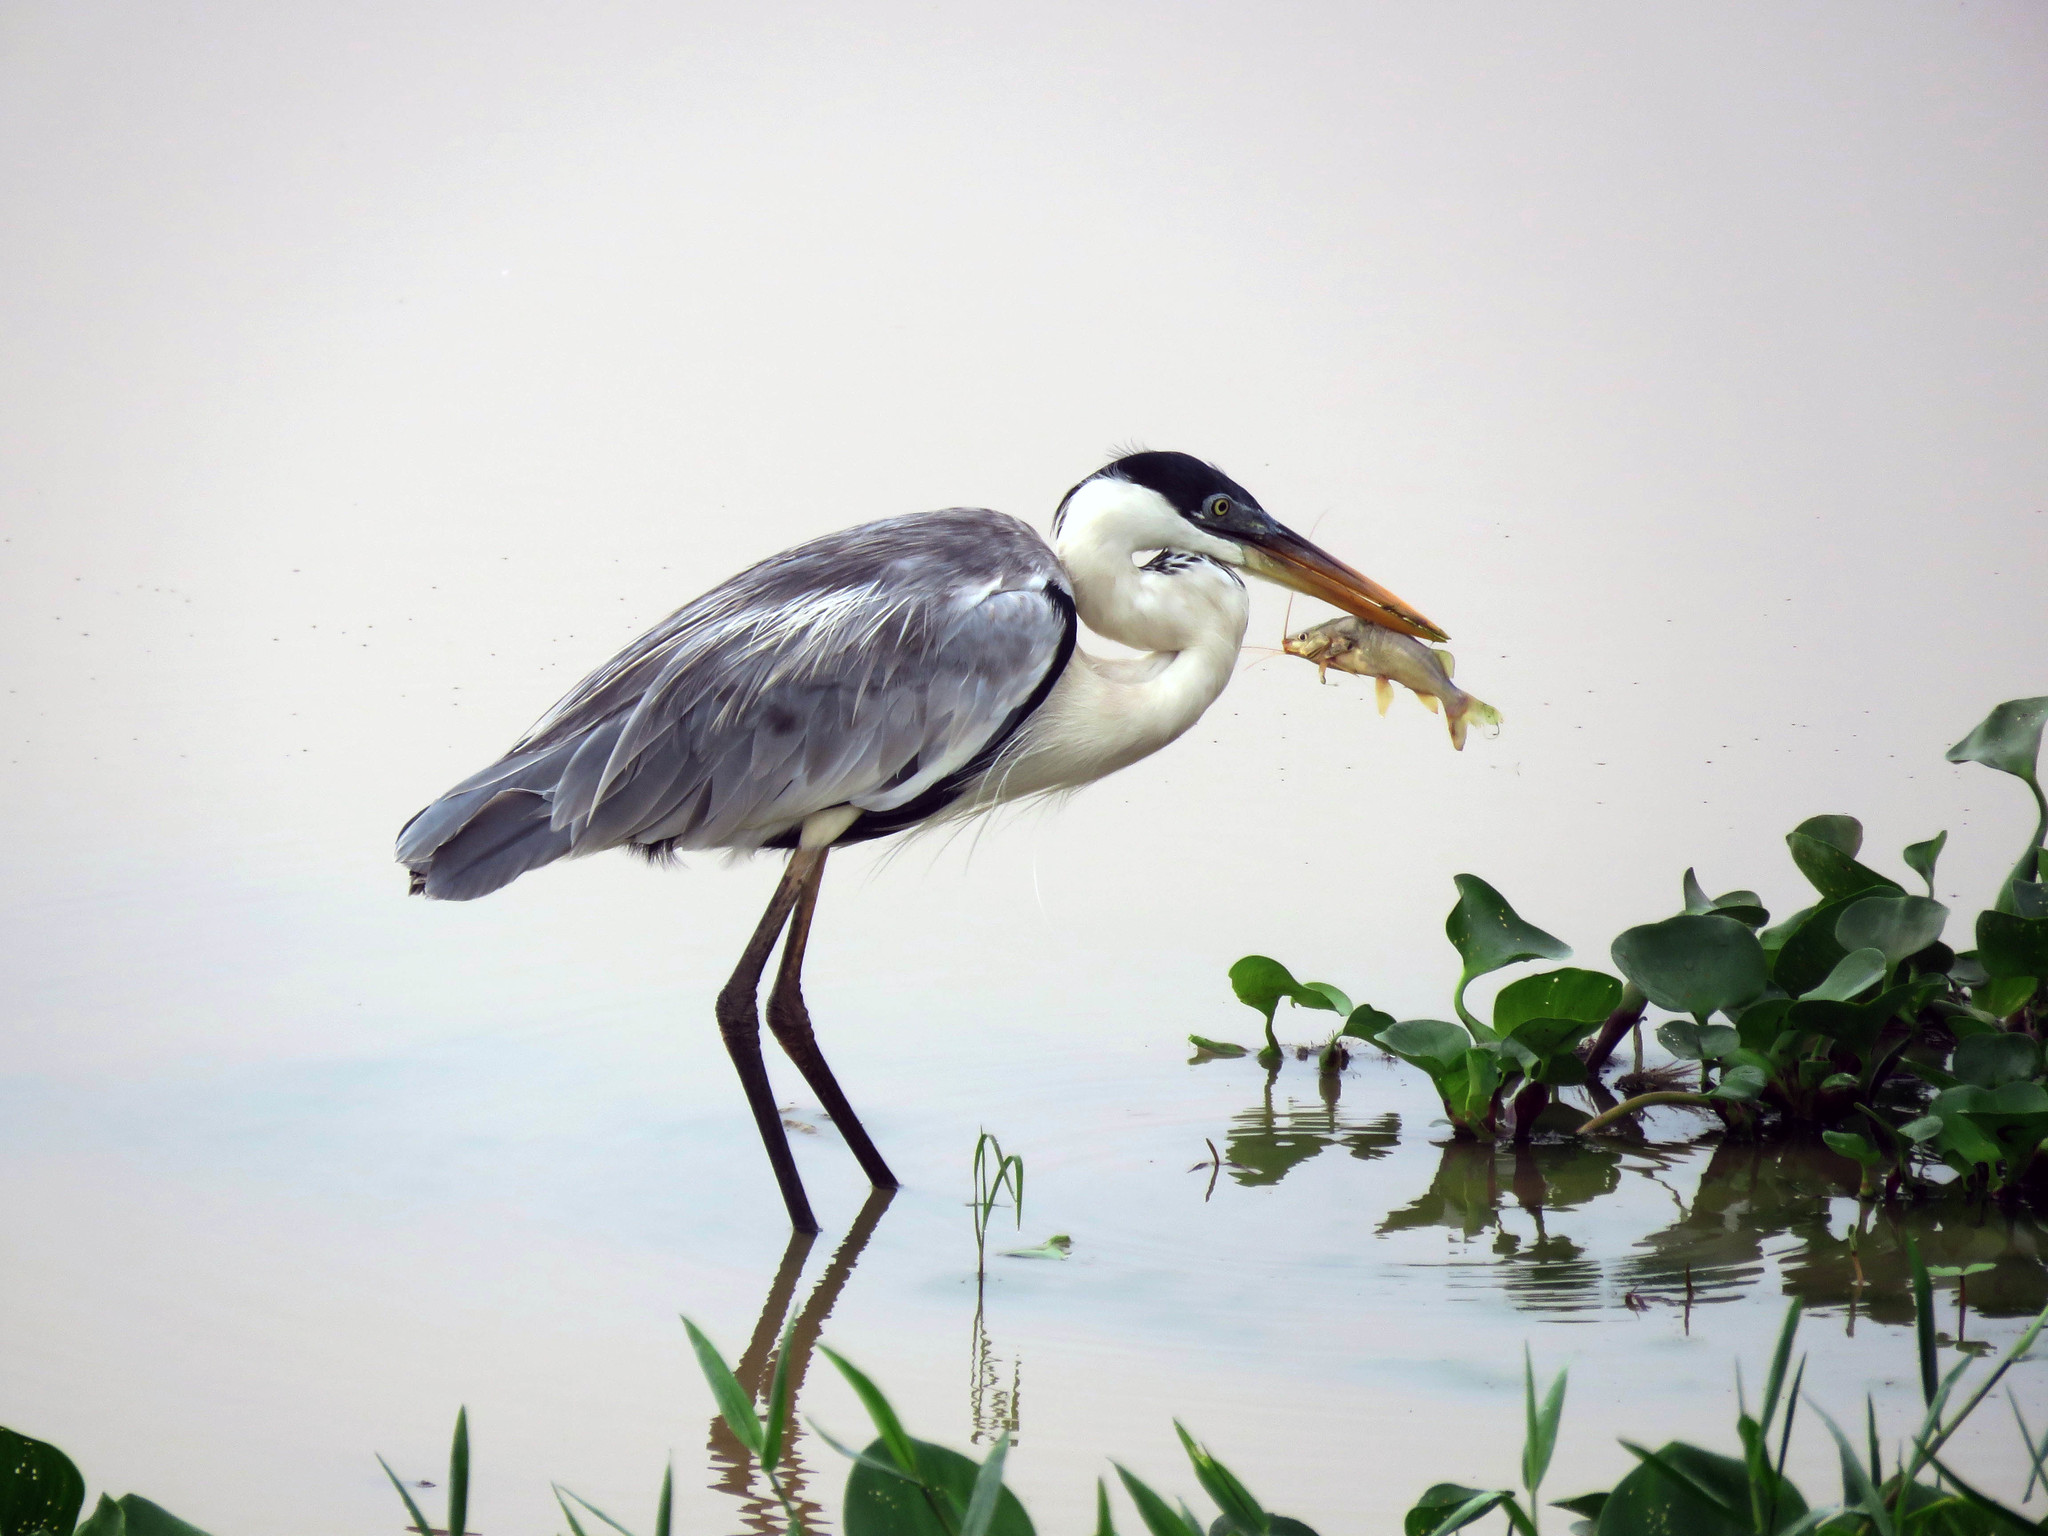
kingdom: Animalia
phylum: Chordata
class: Aves
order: Pelecaniformes
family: Ardeidae
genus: Ardea
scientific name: Ardea cocoi
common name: Cocoi heron
